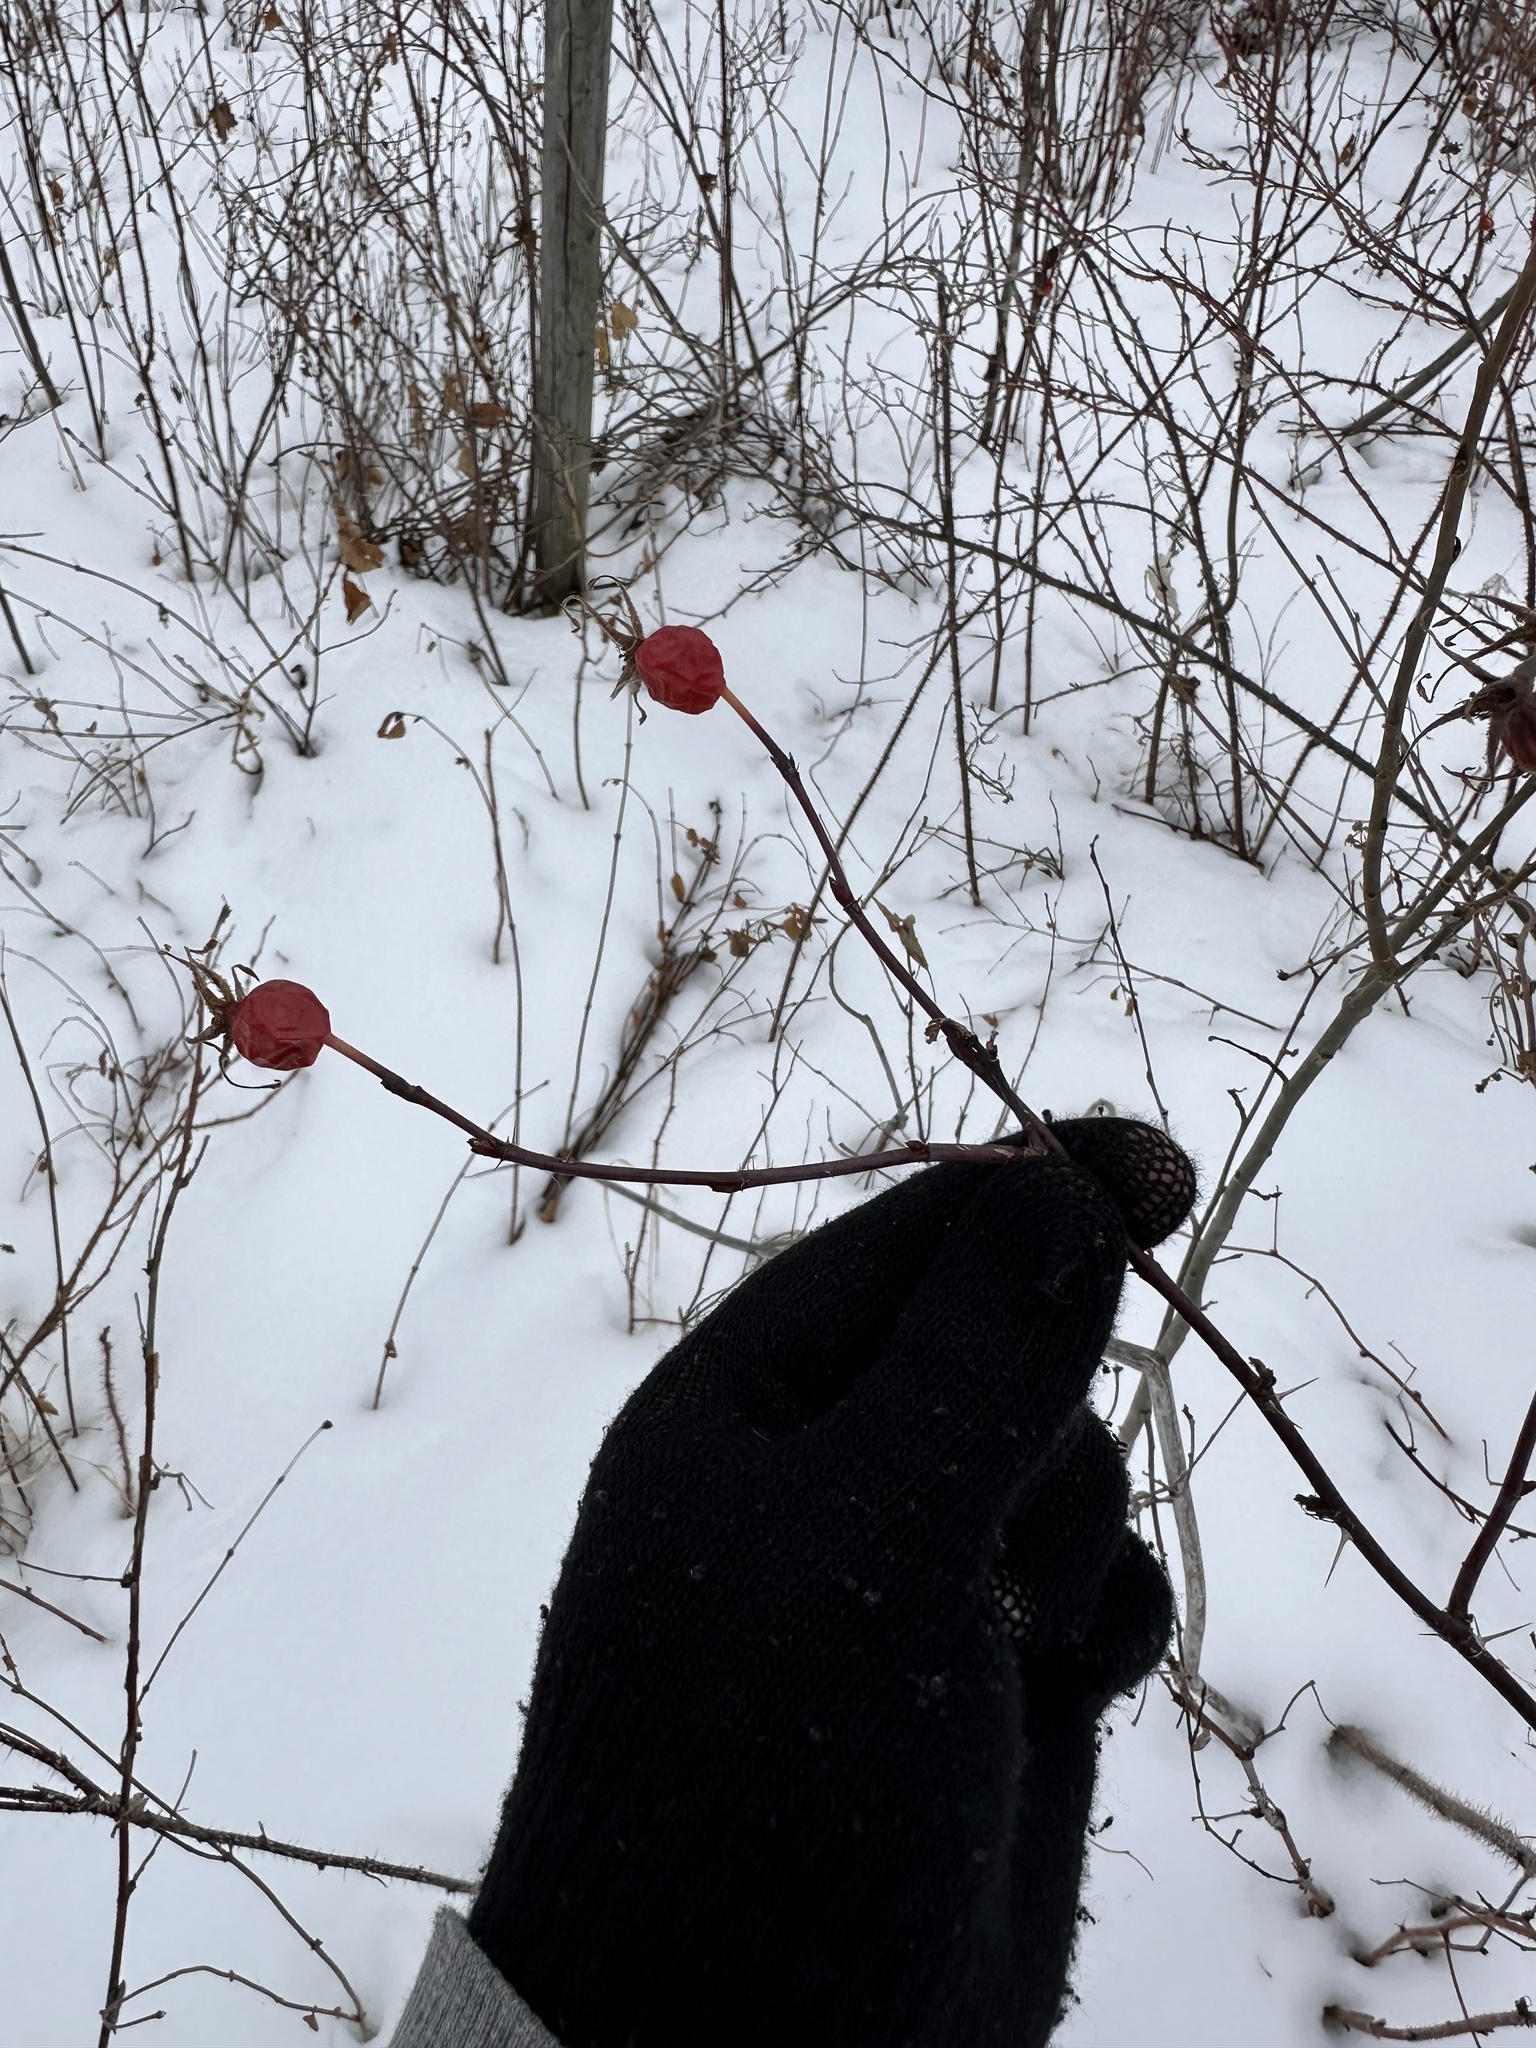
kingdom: Plantae
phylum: Tracheophyta
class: Magnoliopsida
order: Rosales
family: Rosaceae
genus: Rosa
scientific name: Rosa woodsii
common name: Woods's rose
